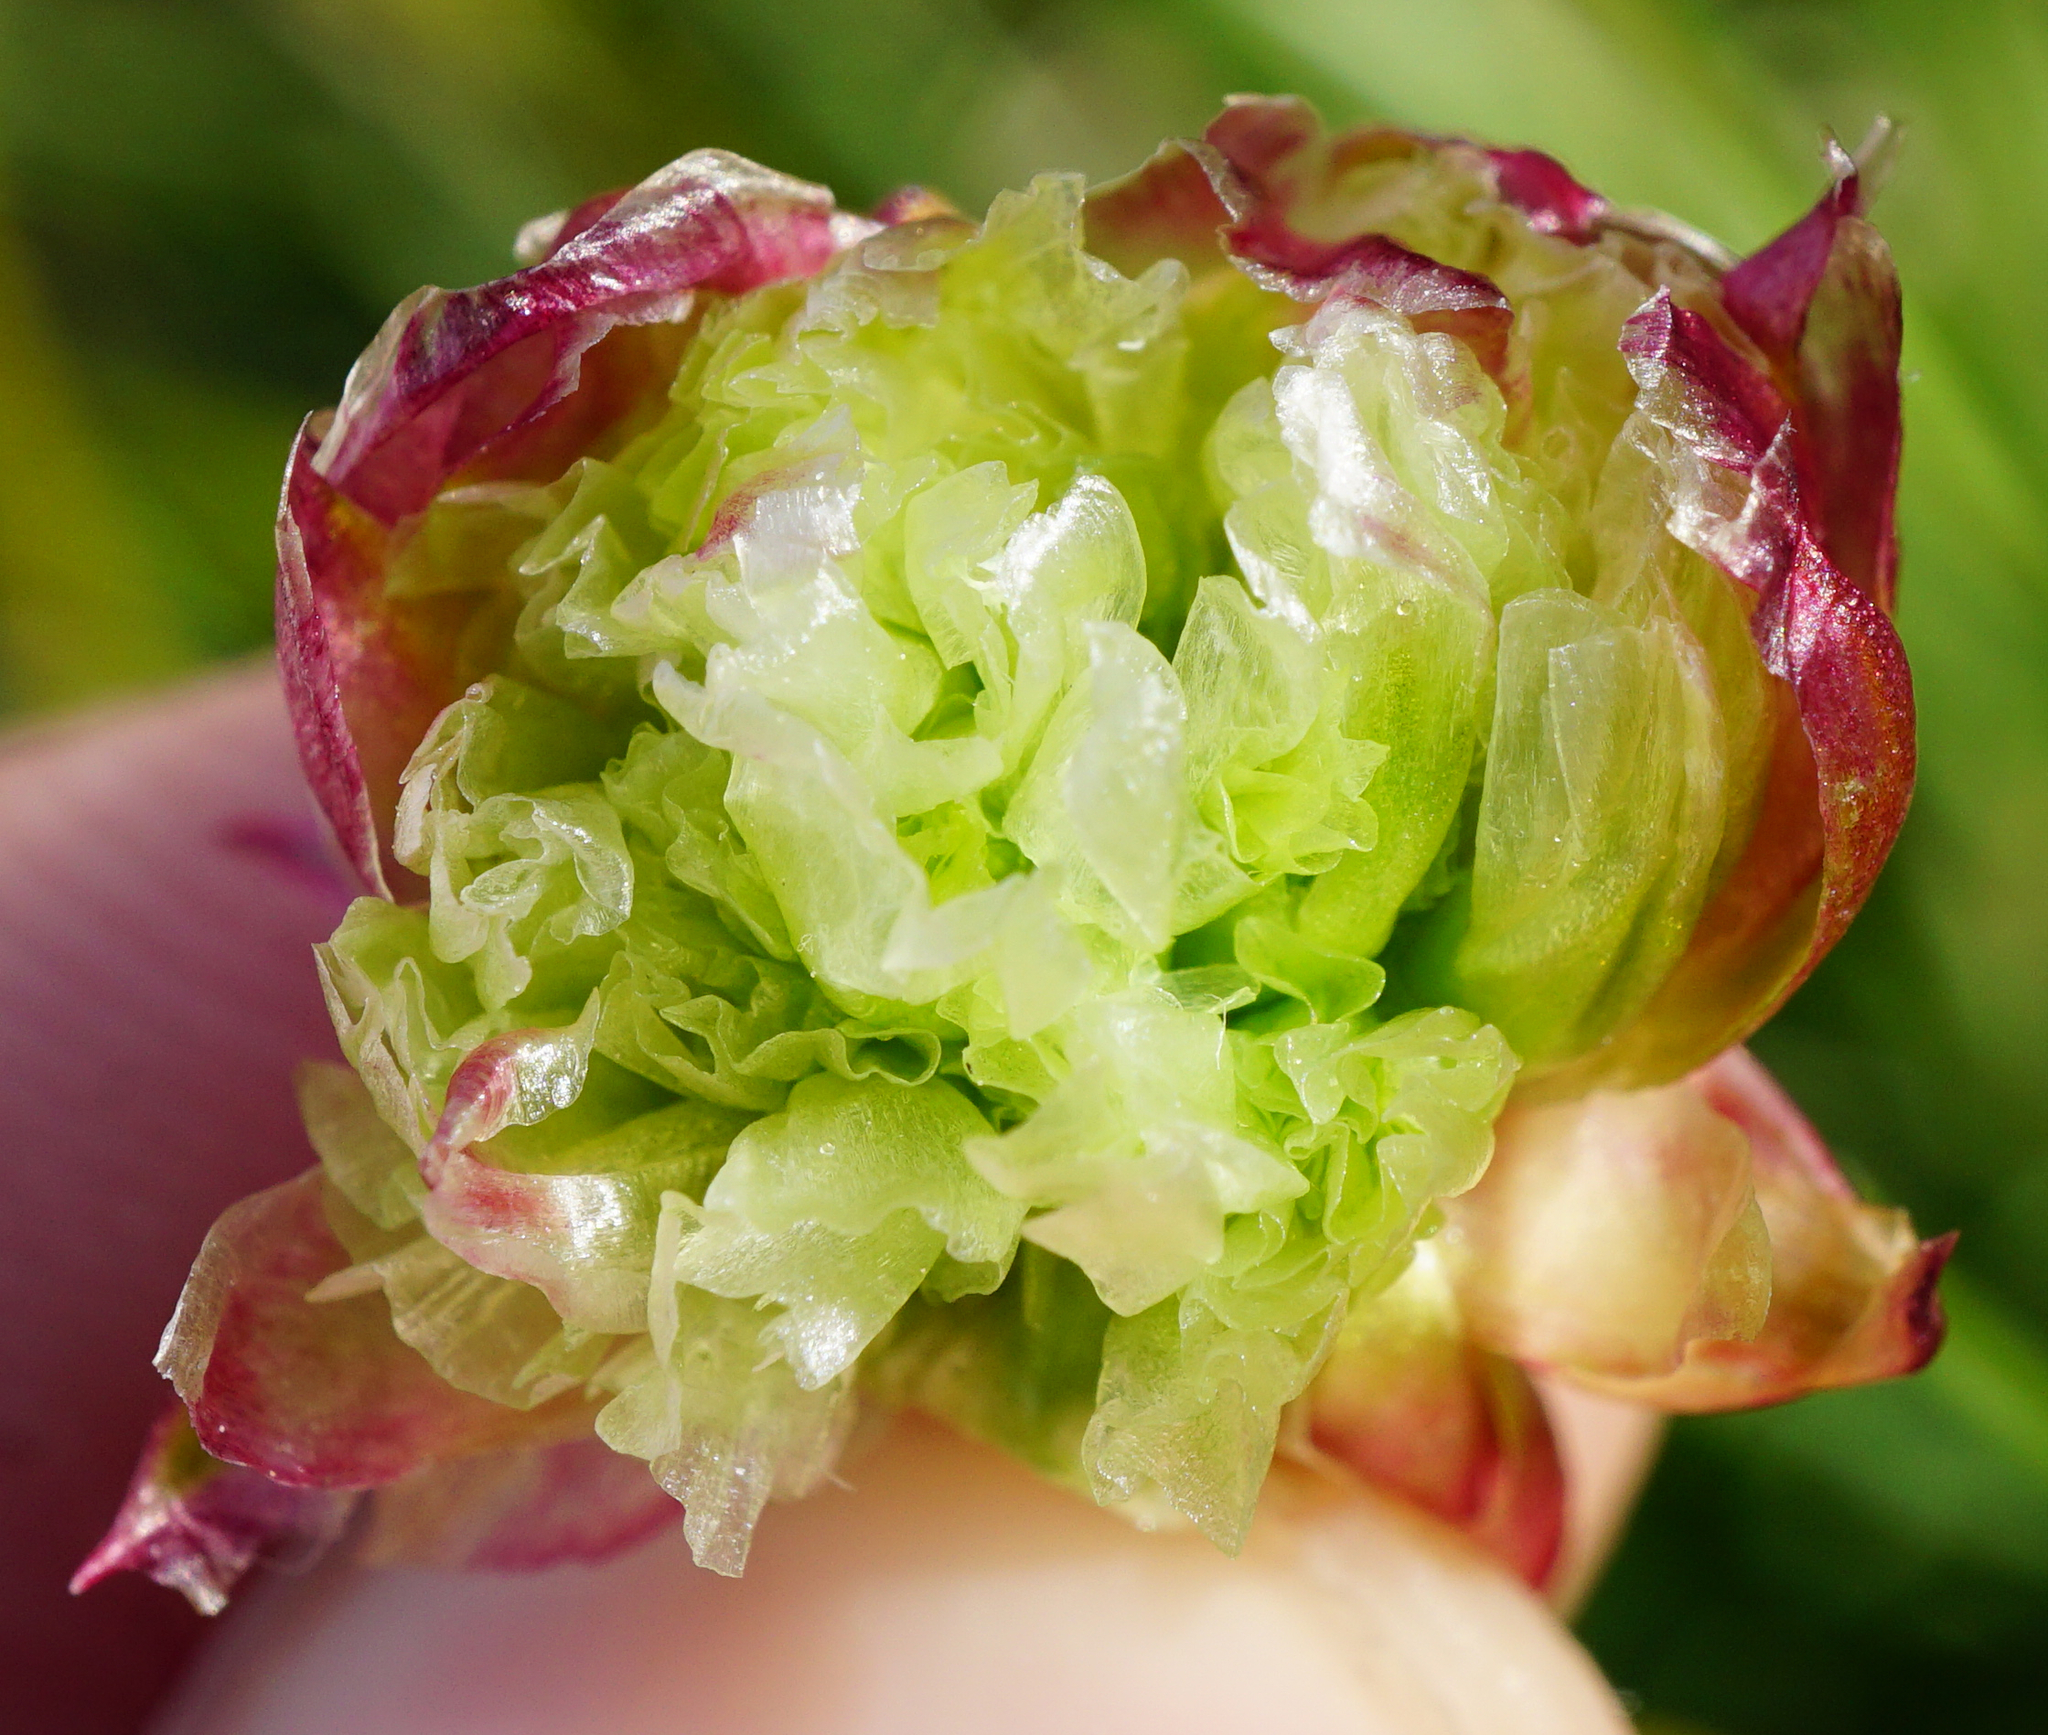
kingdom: Plantae
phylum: Tracheophyta
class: Magnoliopsida
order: Caryophyllales
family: Plumbaginaceae
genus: Armeria
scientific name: Armeria alpina
